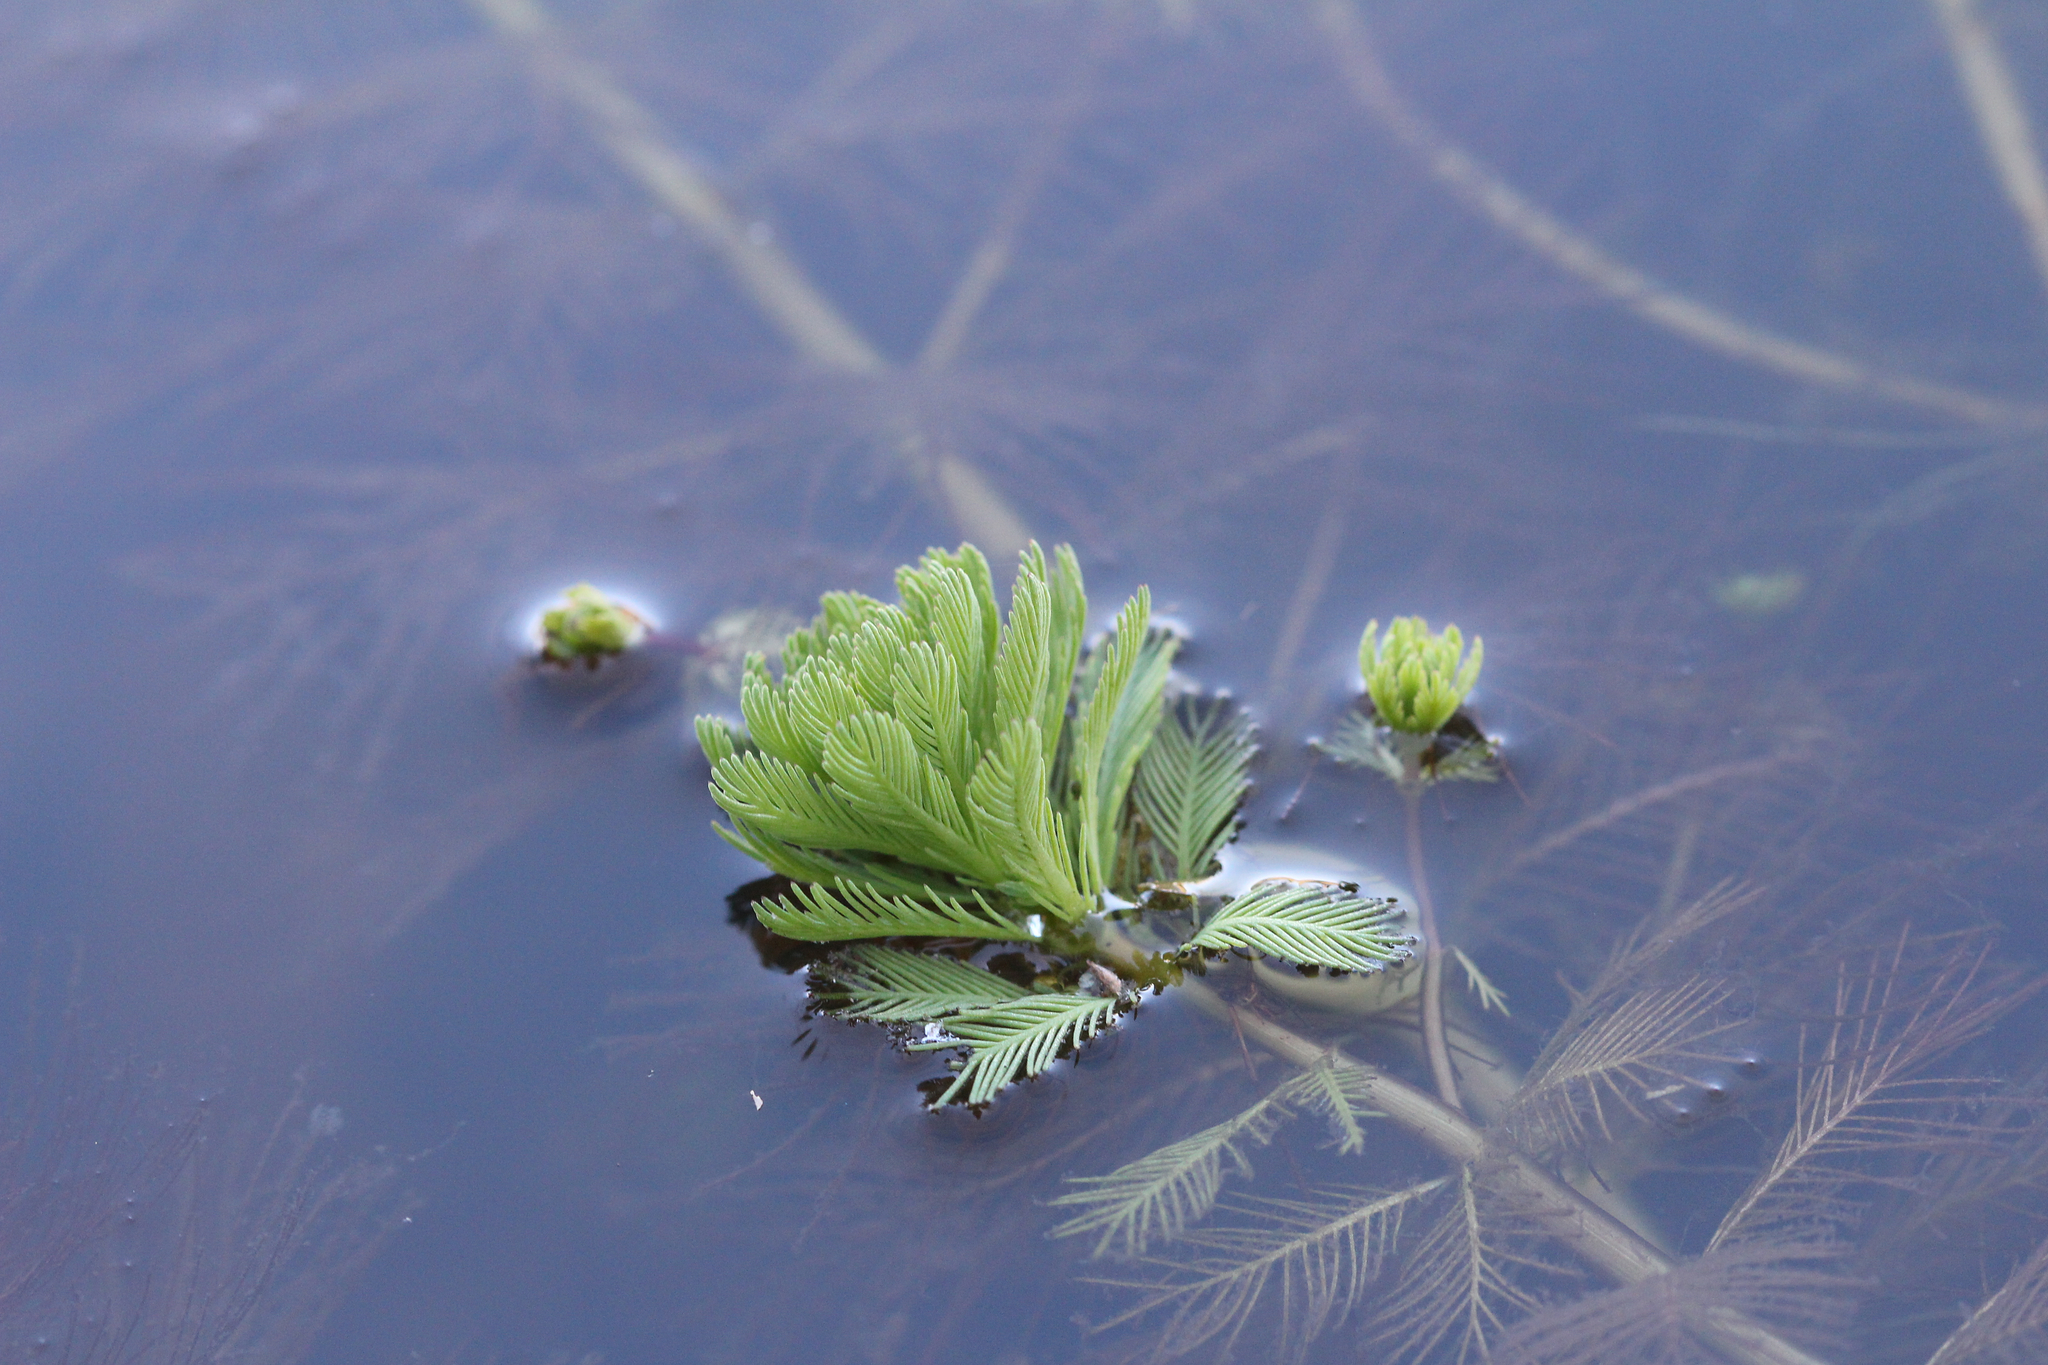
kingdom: Plantae
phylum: Tracheophyta
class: Magnoliopsida
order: Saxifragales
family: Haloragaceae
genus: Myriophyllum
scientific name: Myriophyllum aquaticum
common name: Parrot's feather
